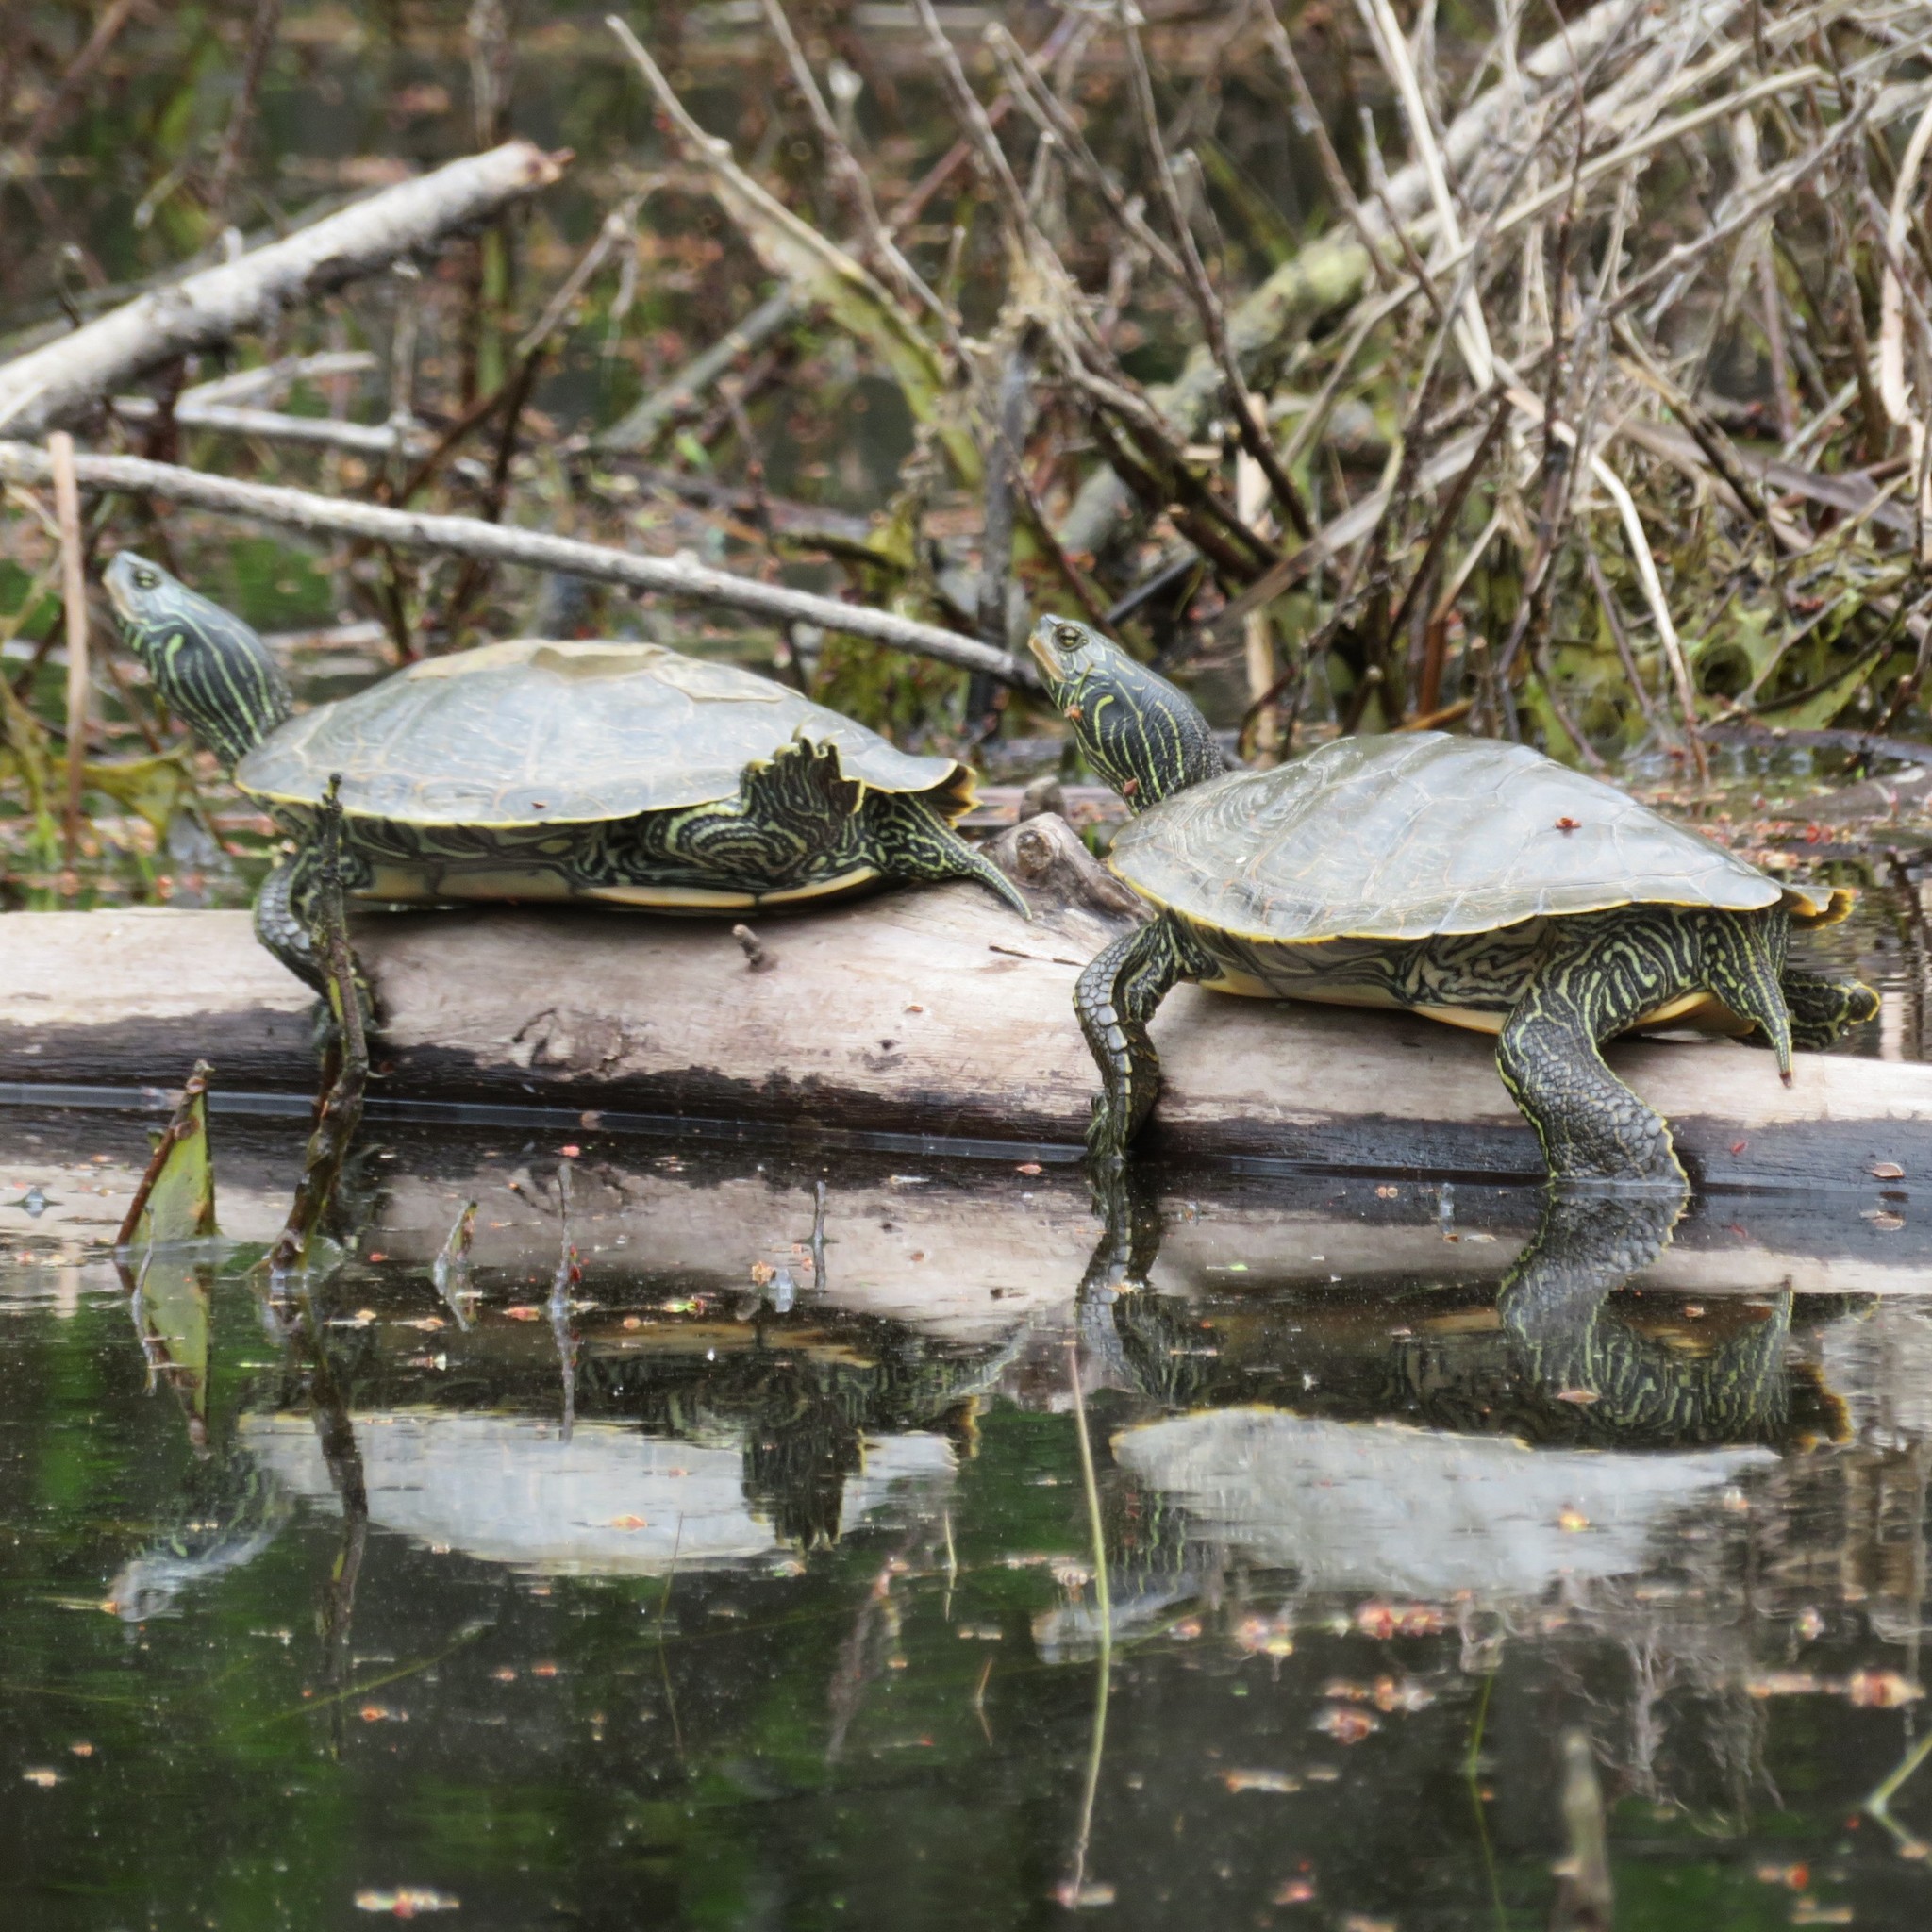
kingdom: Animalia
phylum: Chordata
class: Testudines
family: Emydidae
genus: Graptemys
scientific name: Graptemys geographica
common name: Common map turtle
